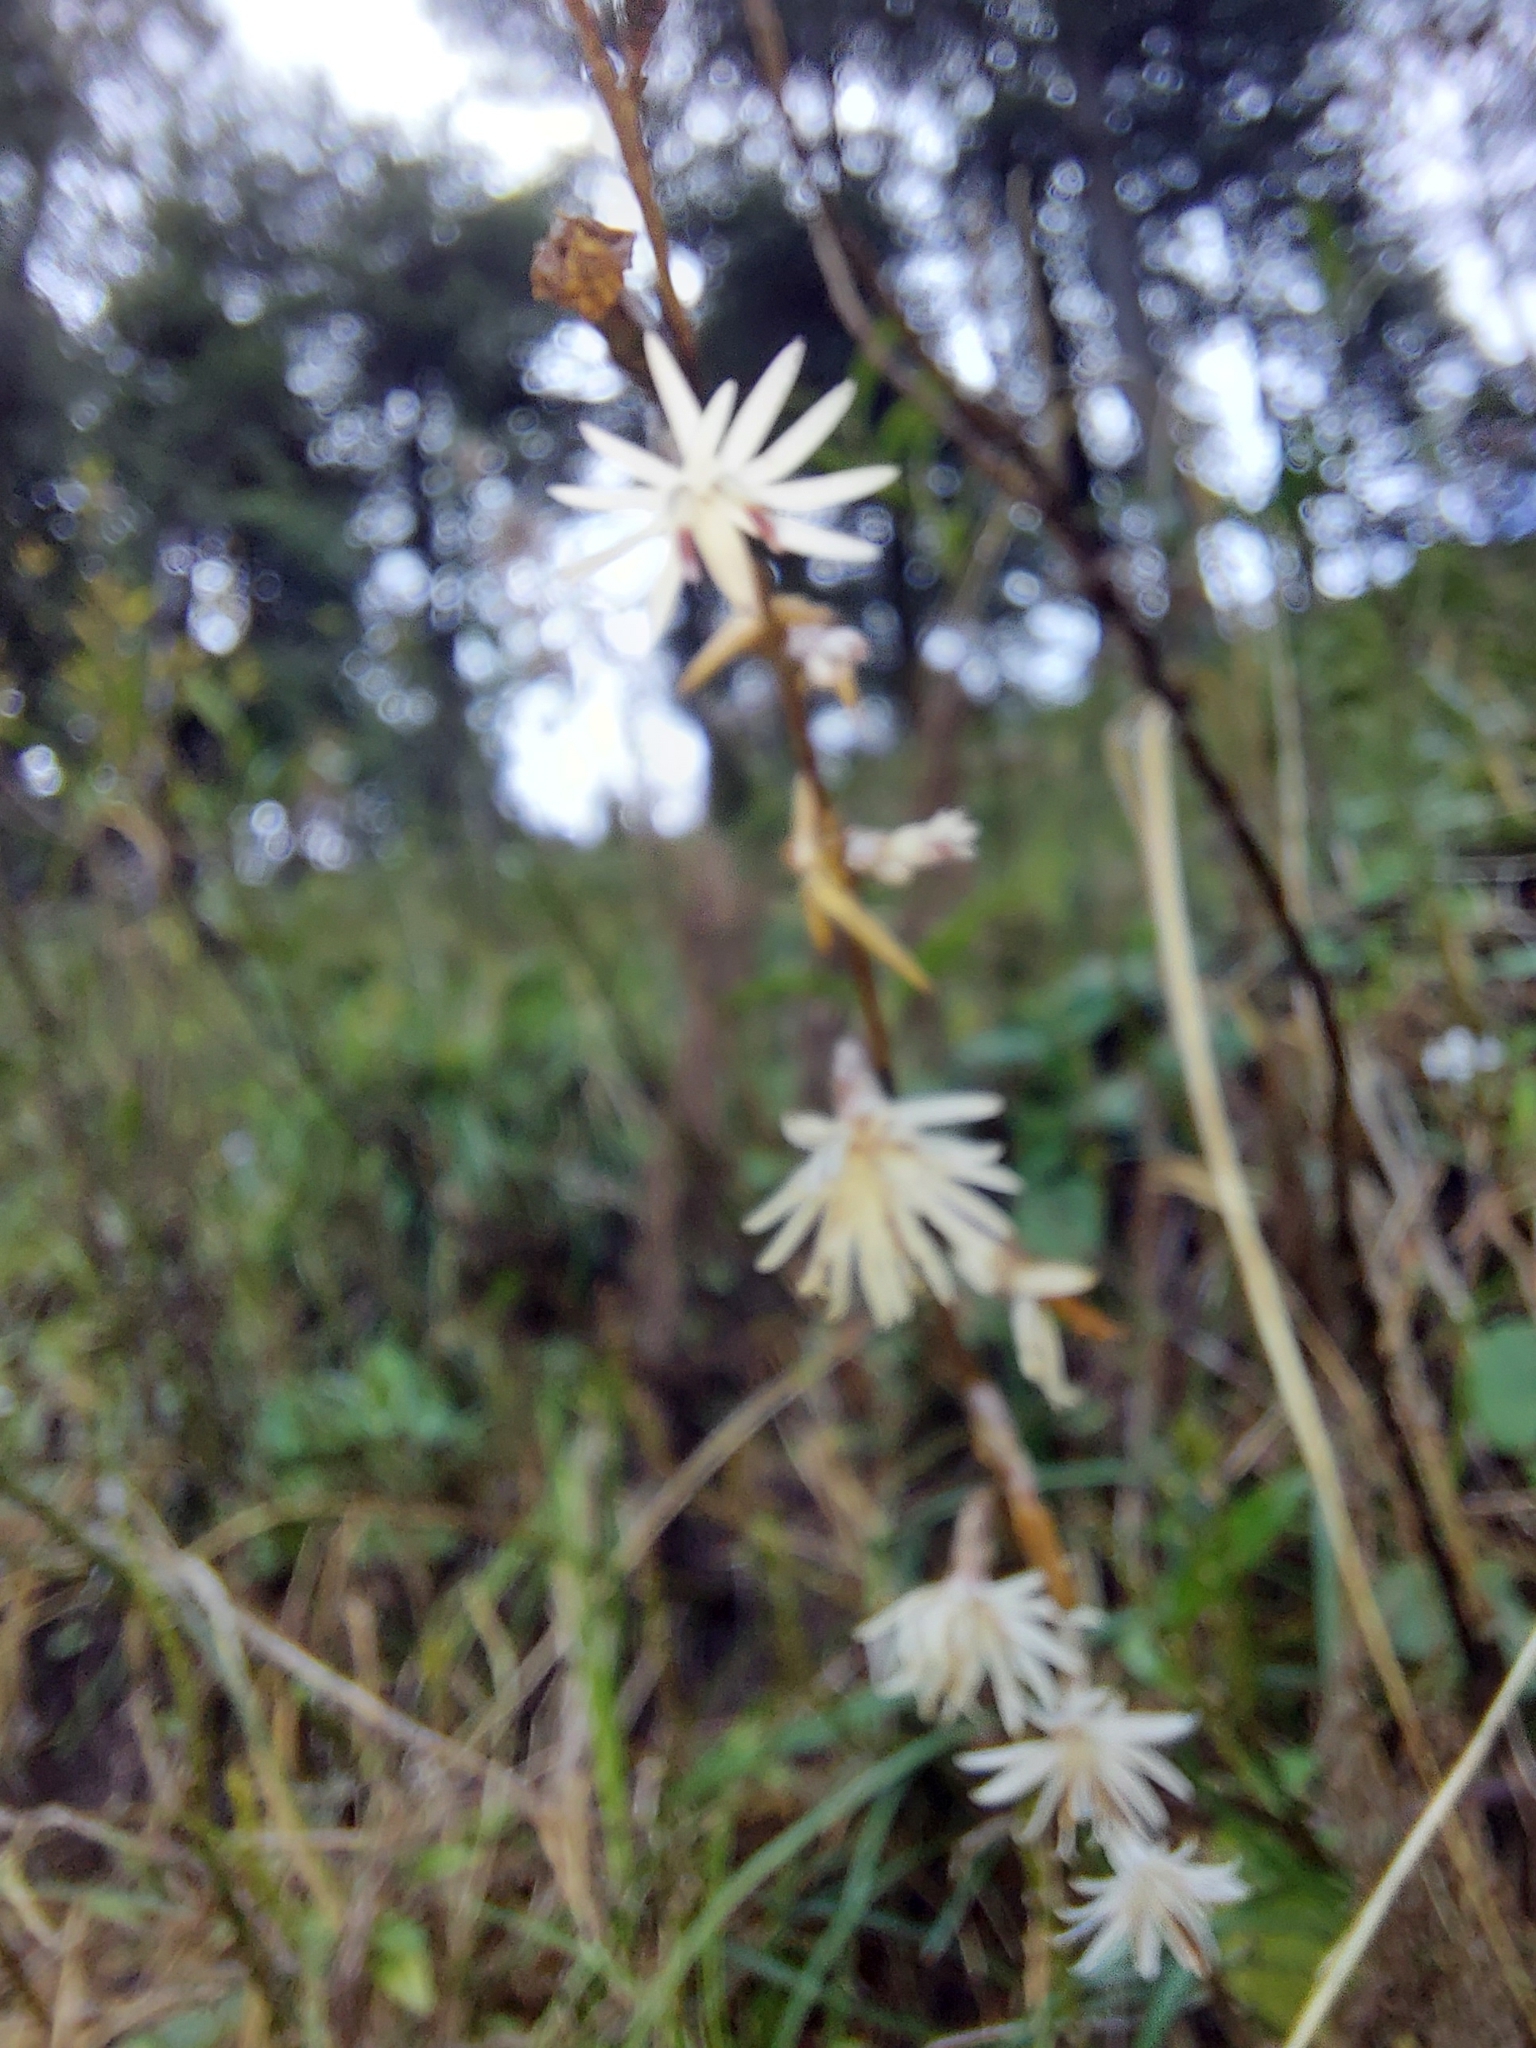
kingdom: Plantae
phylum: Tracheophyta
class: Magnoliopsida
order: Asterales
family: Asteraceae
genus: Ainsliaea
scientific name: Ainsliaea aptera
